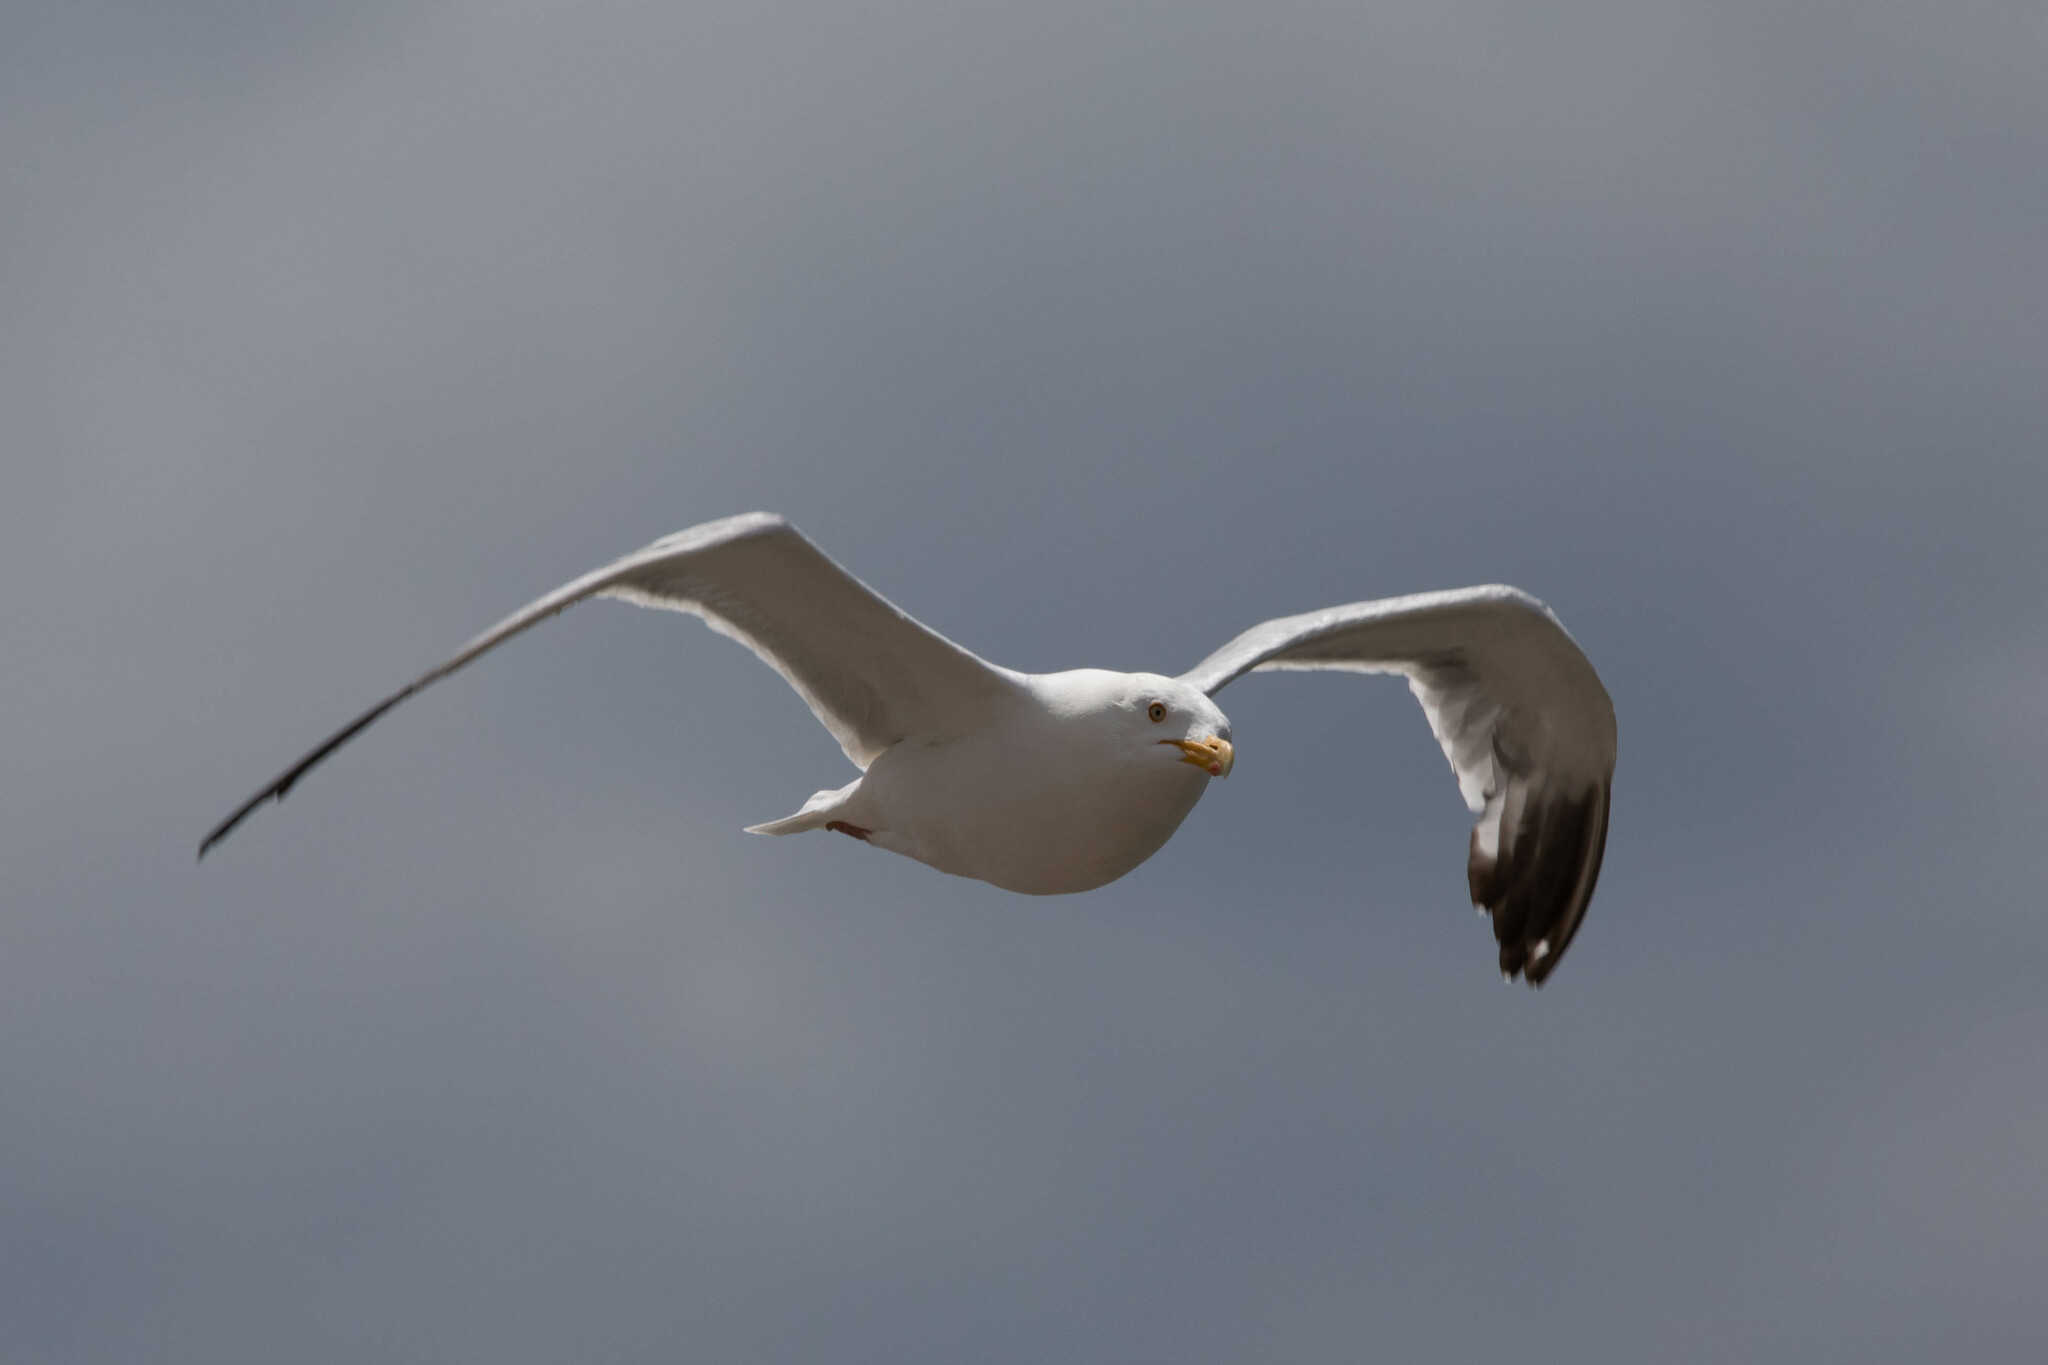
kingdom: Animalia
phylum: Chordata
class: Aves
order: Charadriiformes
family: Laridae
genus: Larus
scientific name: Larus argentatus
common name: Herring gull
